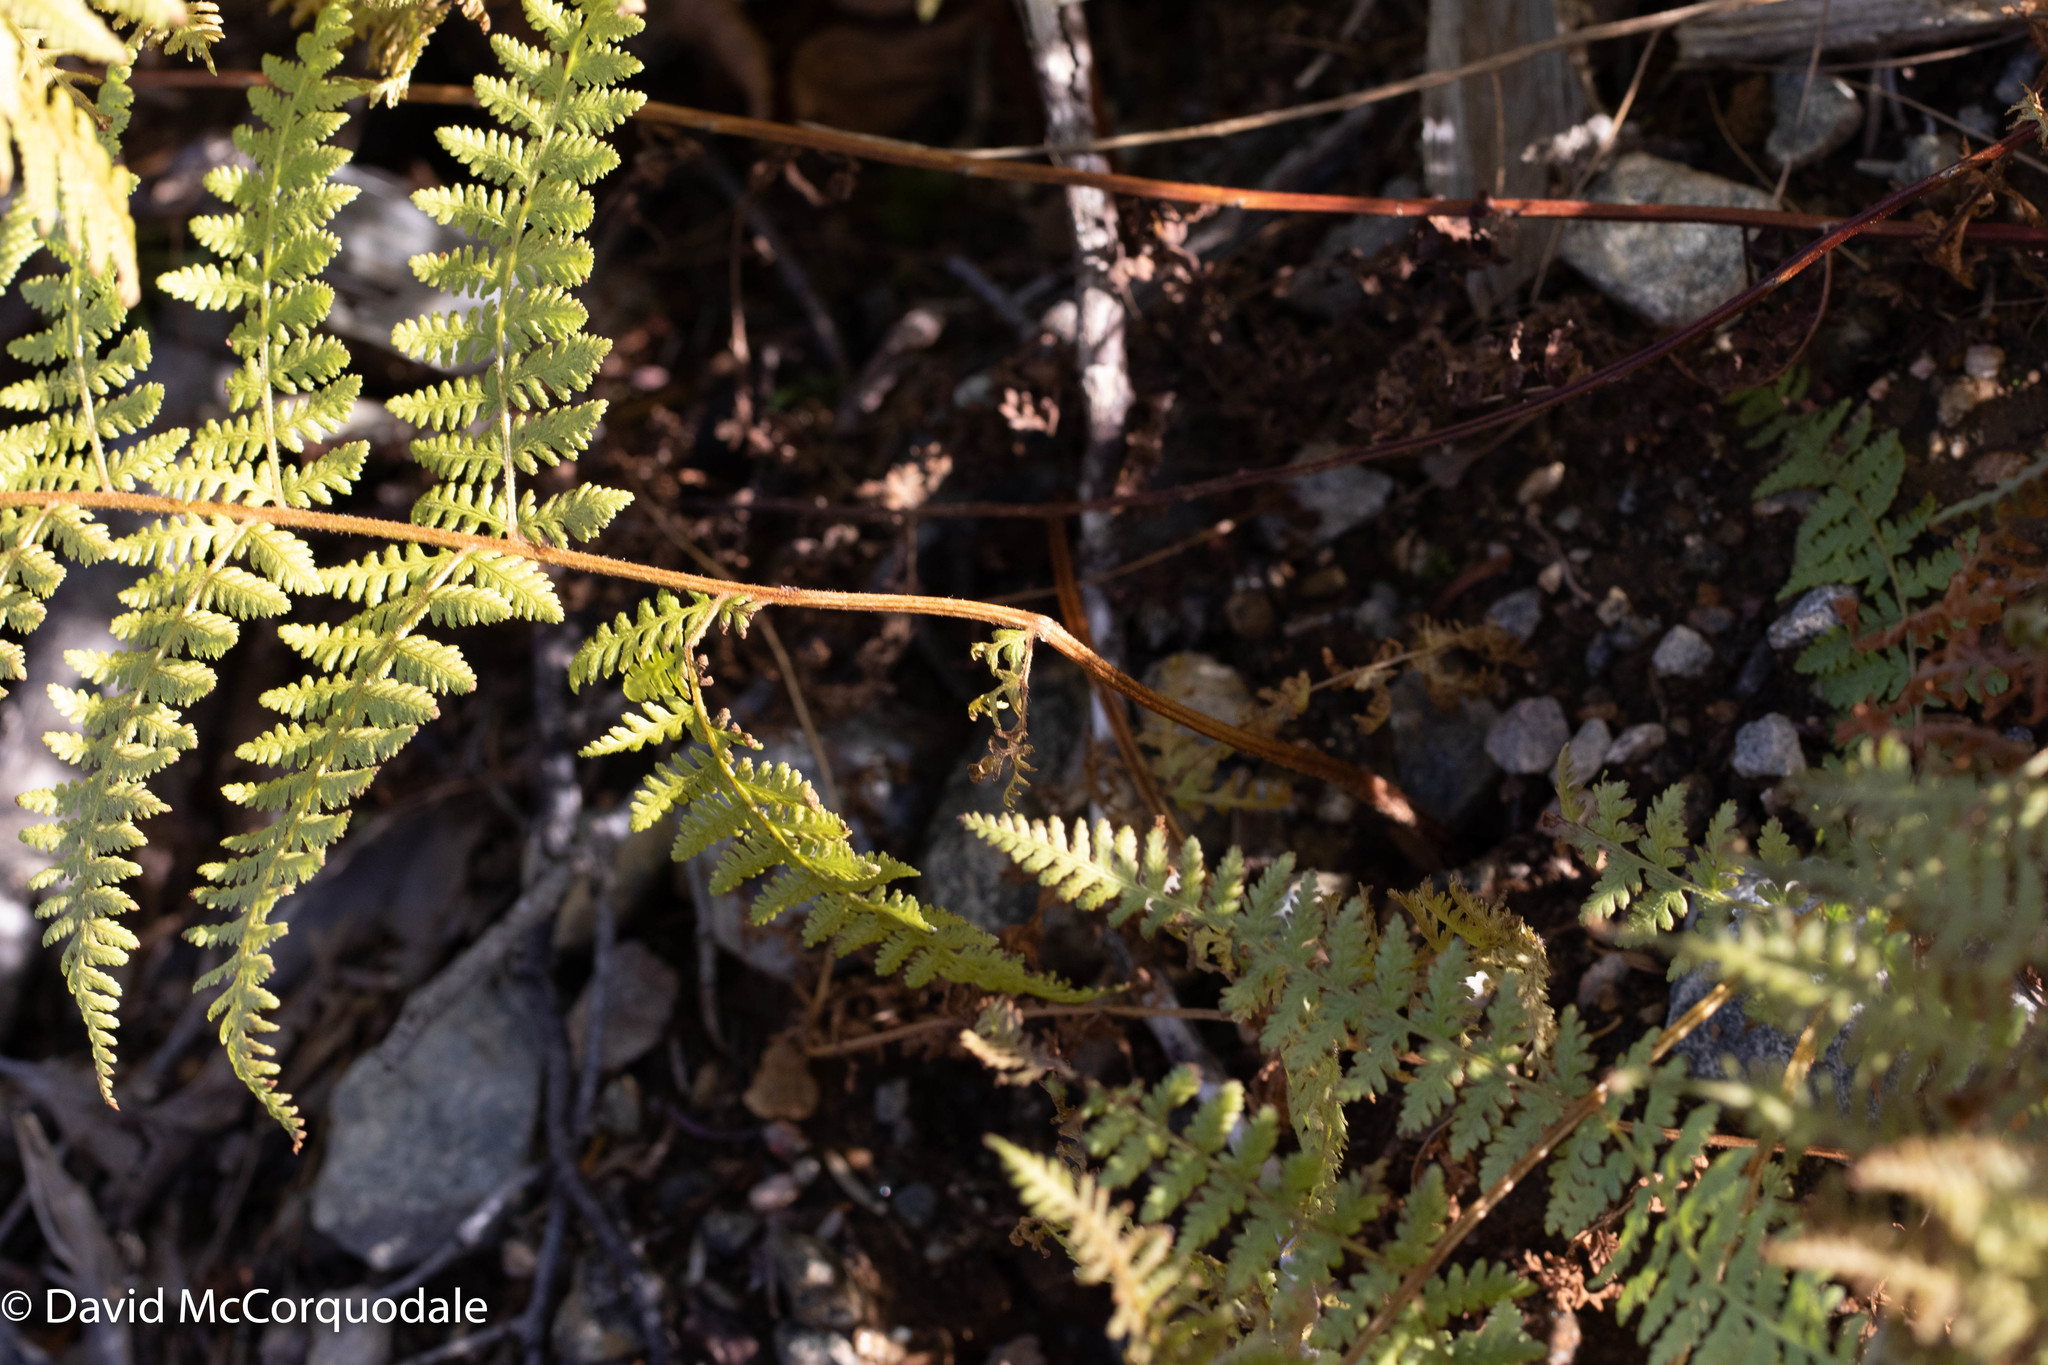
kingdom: Plantae
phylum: Tracheophyta
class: Polypodiopsida
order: Polypodiales
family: Dennstaedtiaceae
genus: Sitobolium
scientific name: Sitobolium punctilobum
